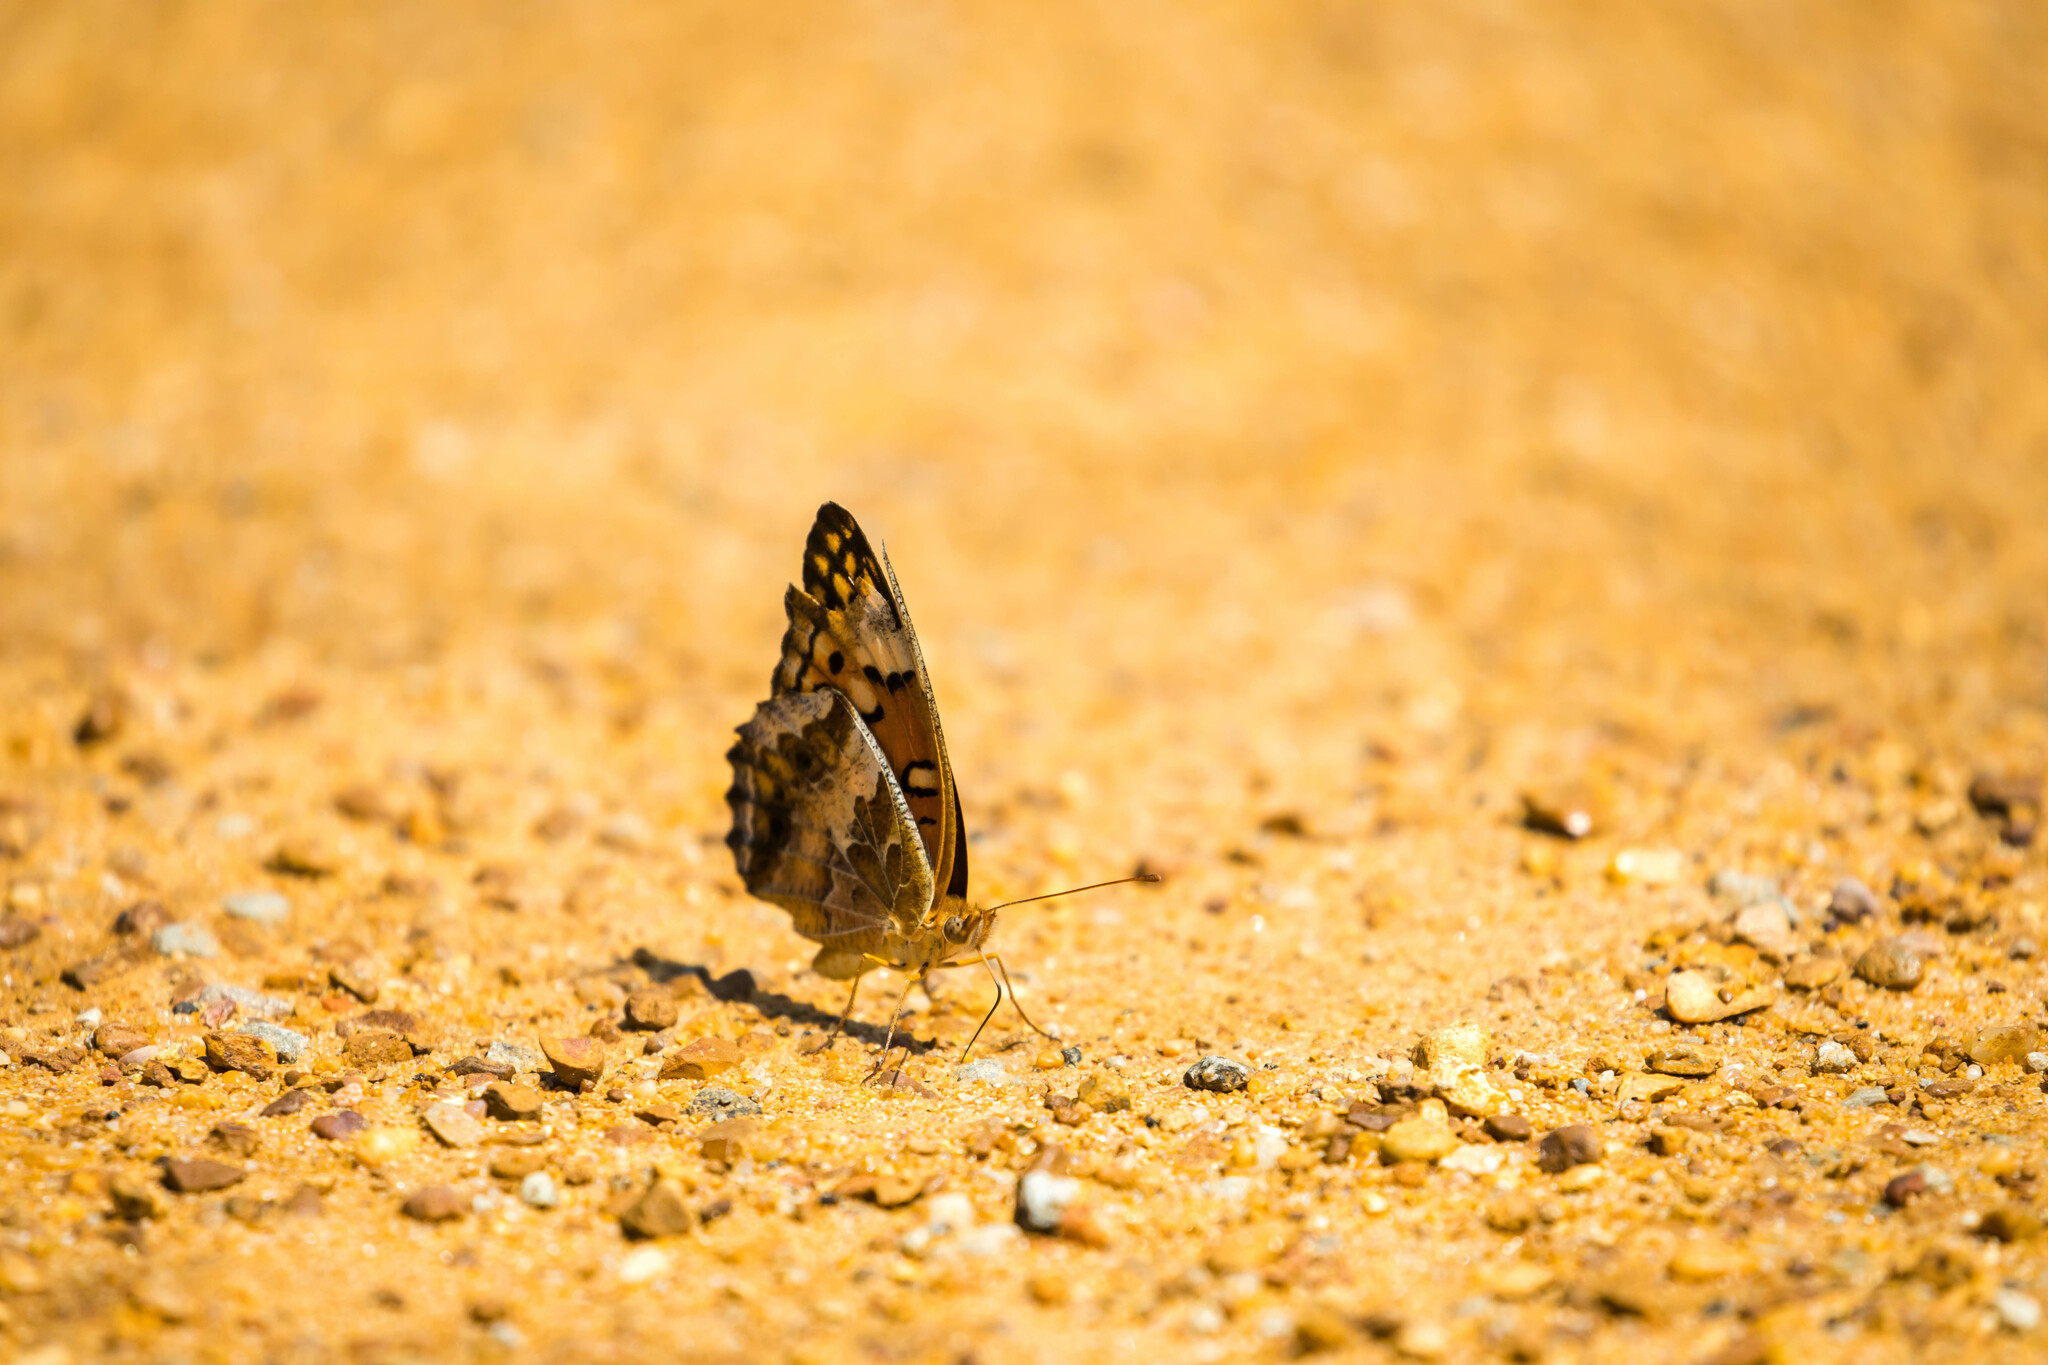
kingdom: Animalia
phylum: Arthropoda
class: Insecta
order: Lepidoptera
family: Nymphalidae
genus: Euptoieta
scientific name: Euptoieta claudia
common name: Variegated fritillary
